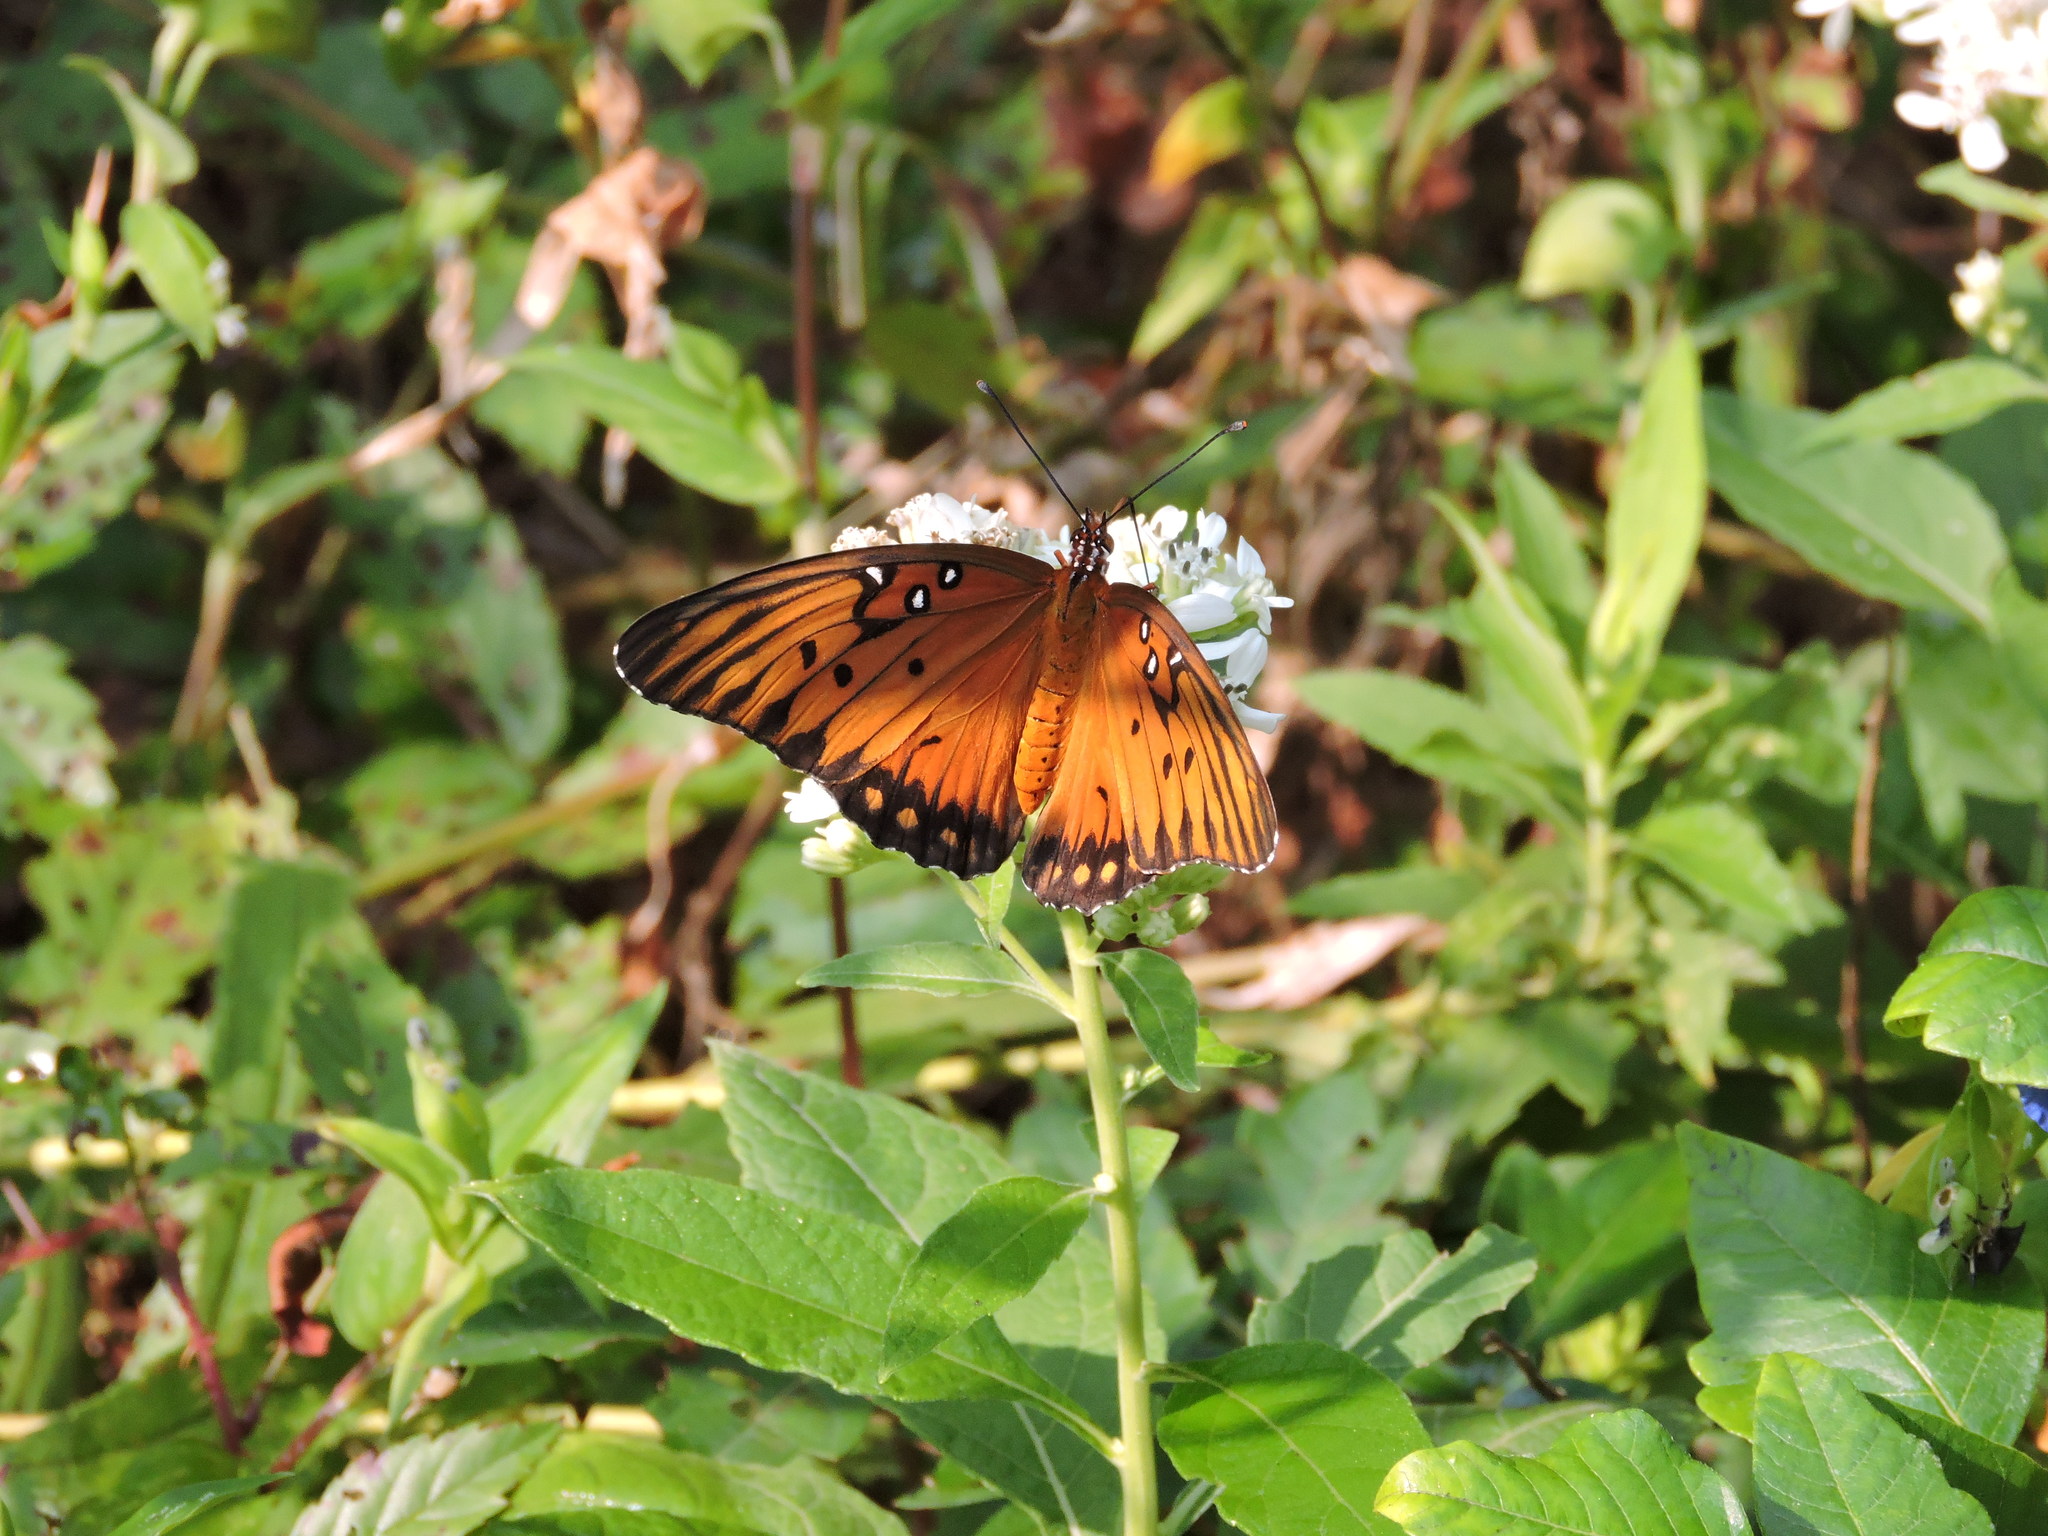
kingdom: Animalia
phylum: Arthropoda
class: Insecta
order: Lepidoptera
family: Nymphalidae
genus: Dione
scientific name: Dione vanillae
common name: Gulf fritillary
